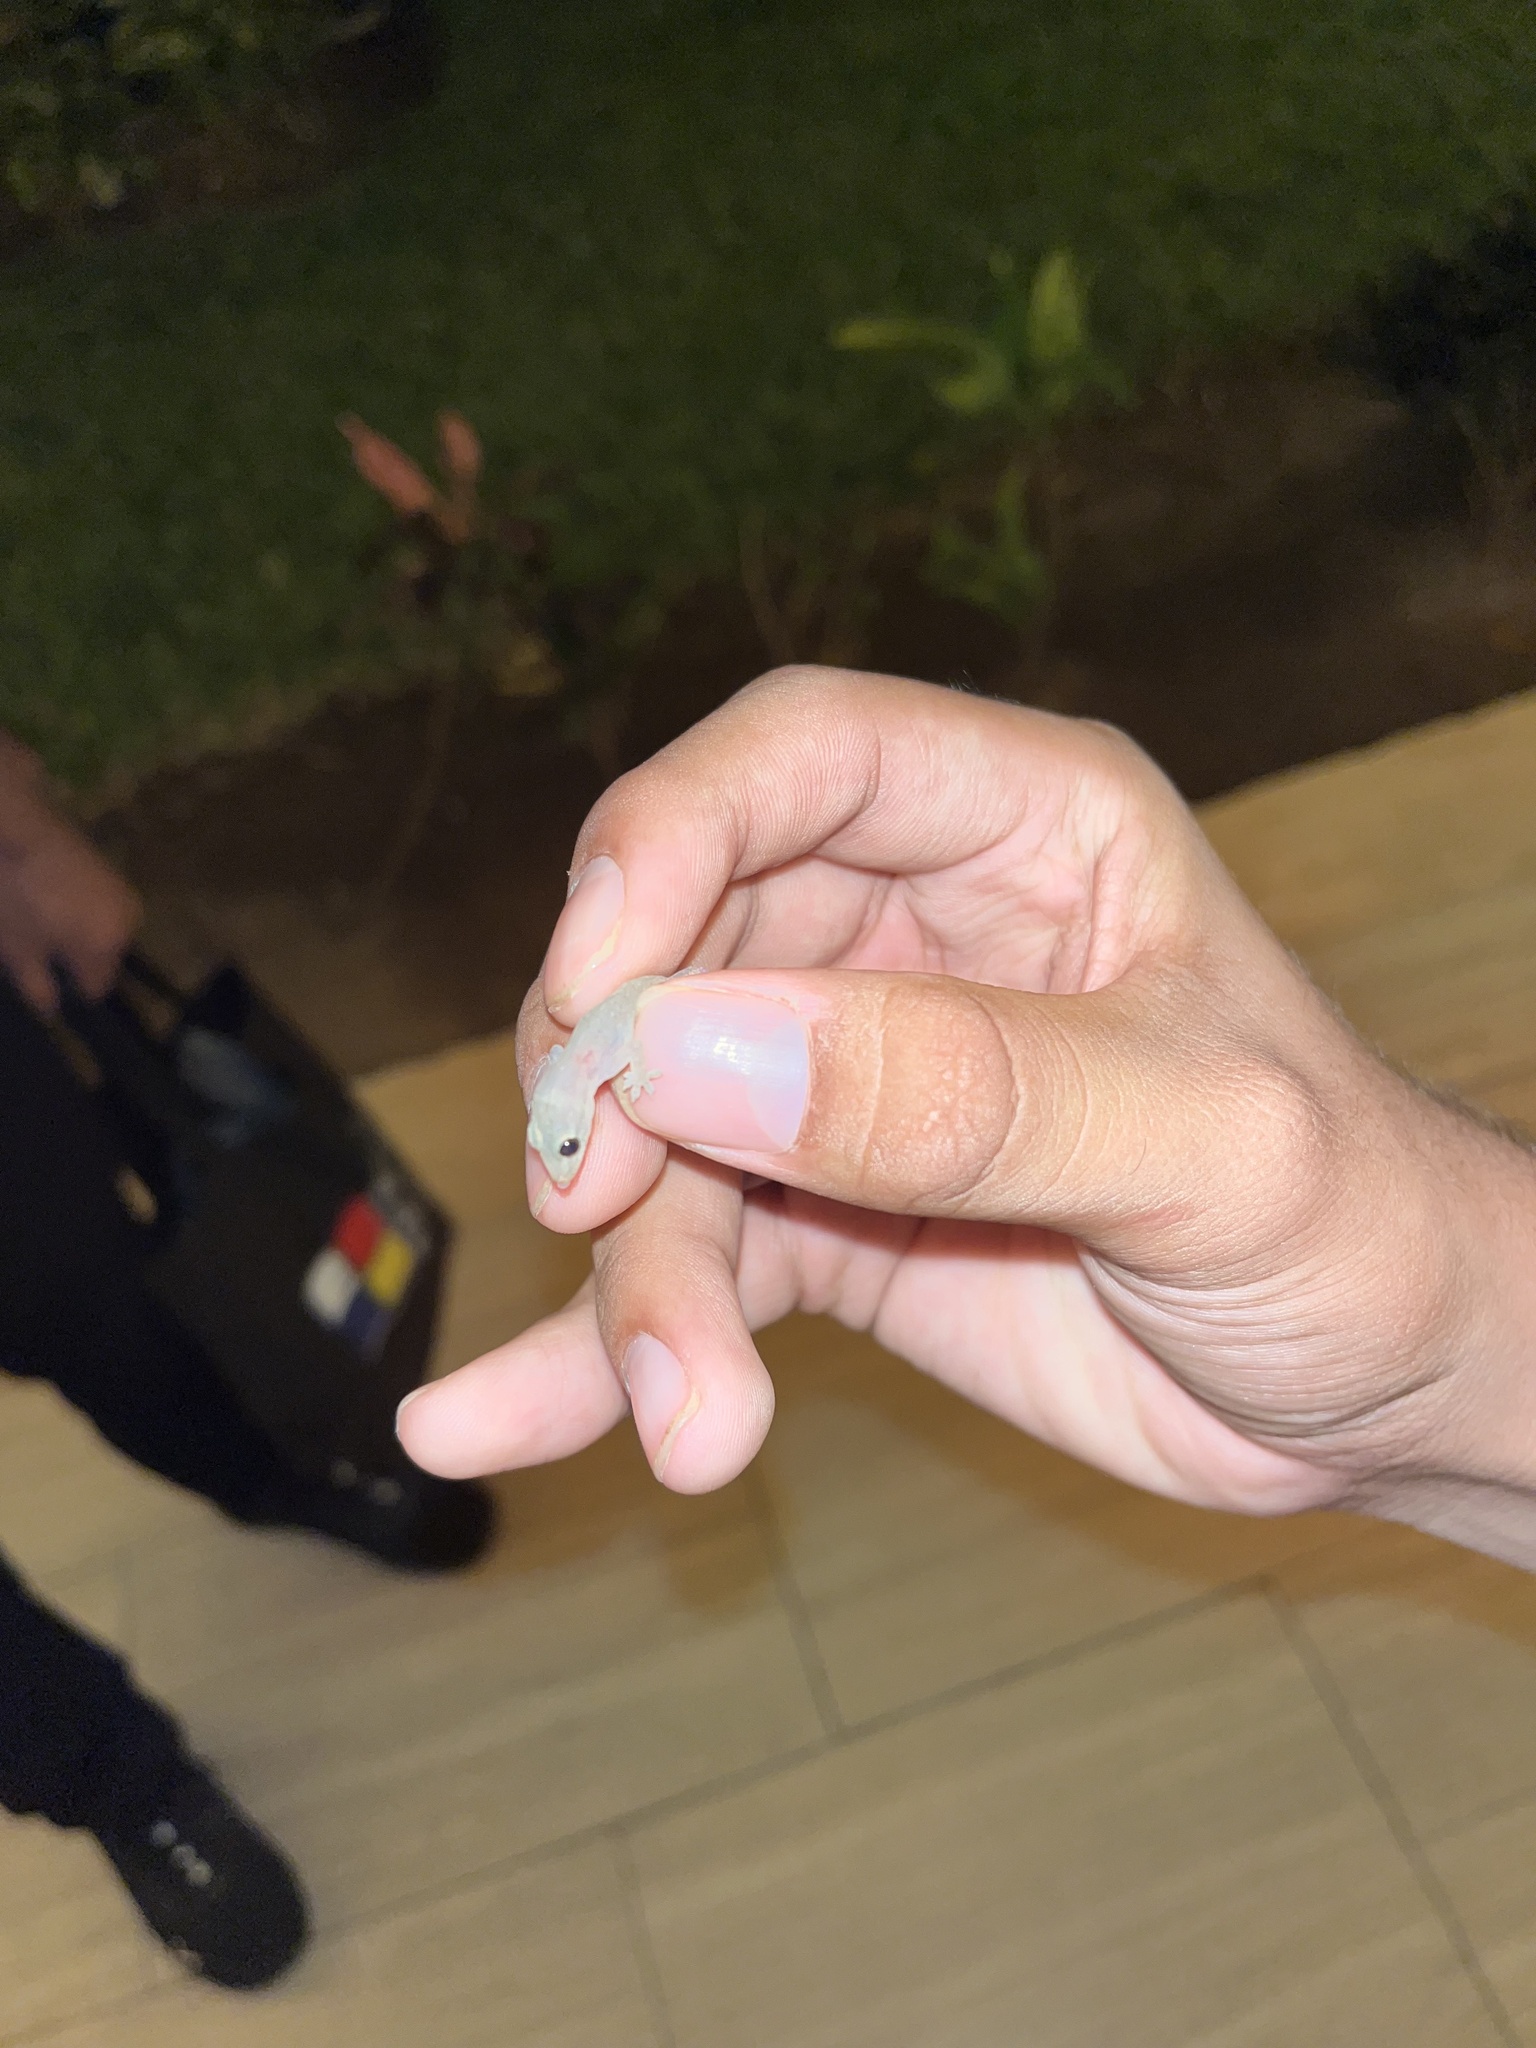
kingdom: Animalia
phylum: Chordata
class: Squamata
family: Gekkonidae
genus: Hemidactylus
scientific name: Hemidactylus frenatus
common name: Common house gecko
